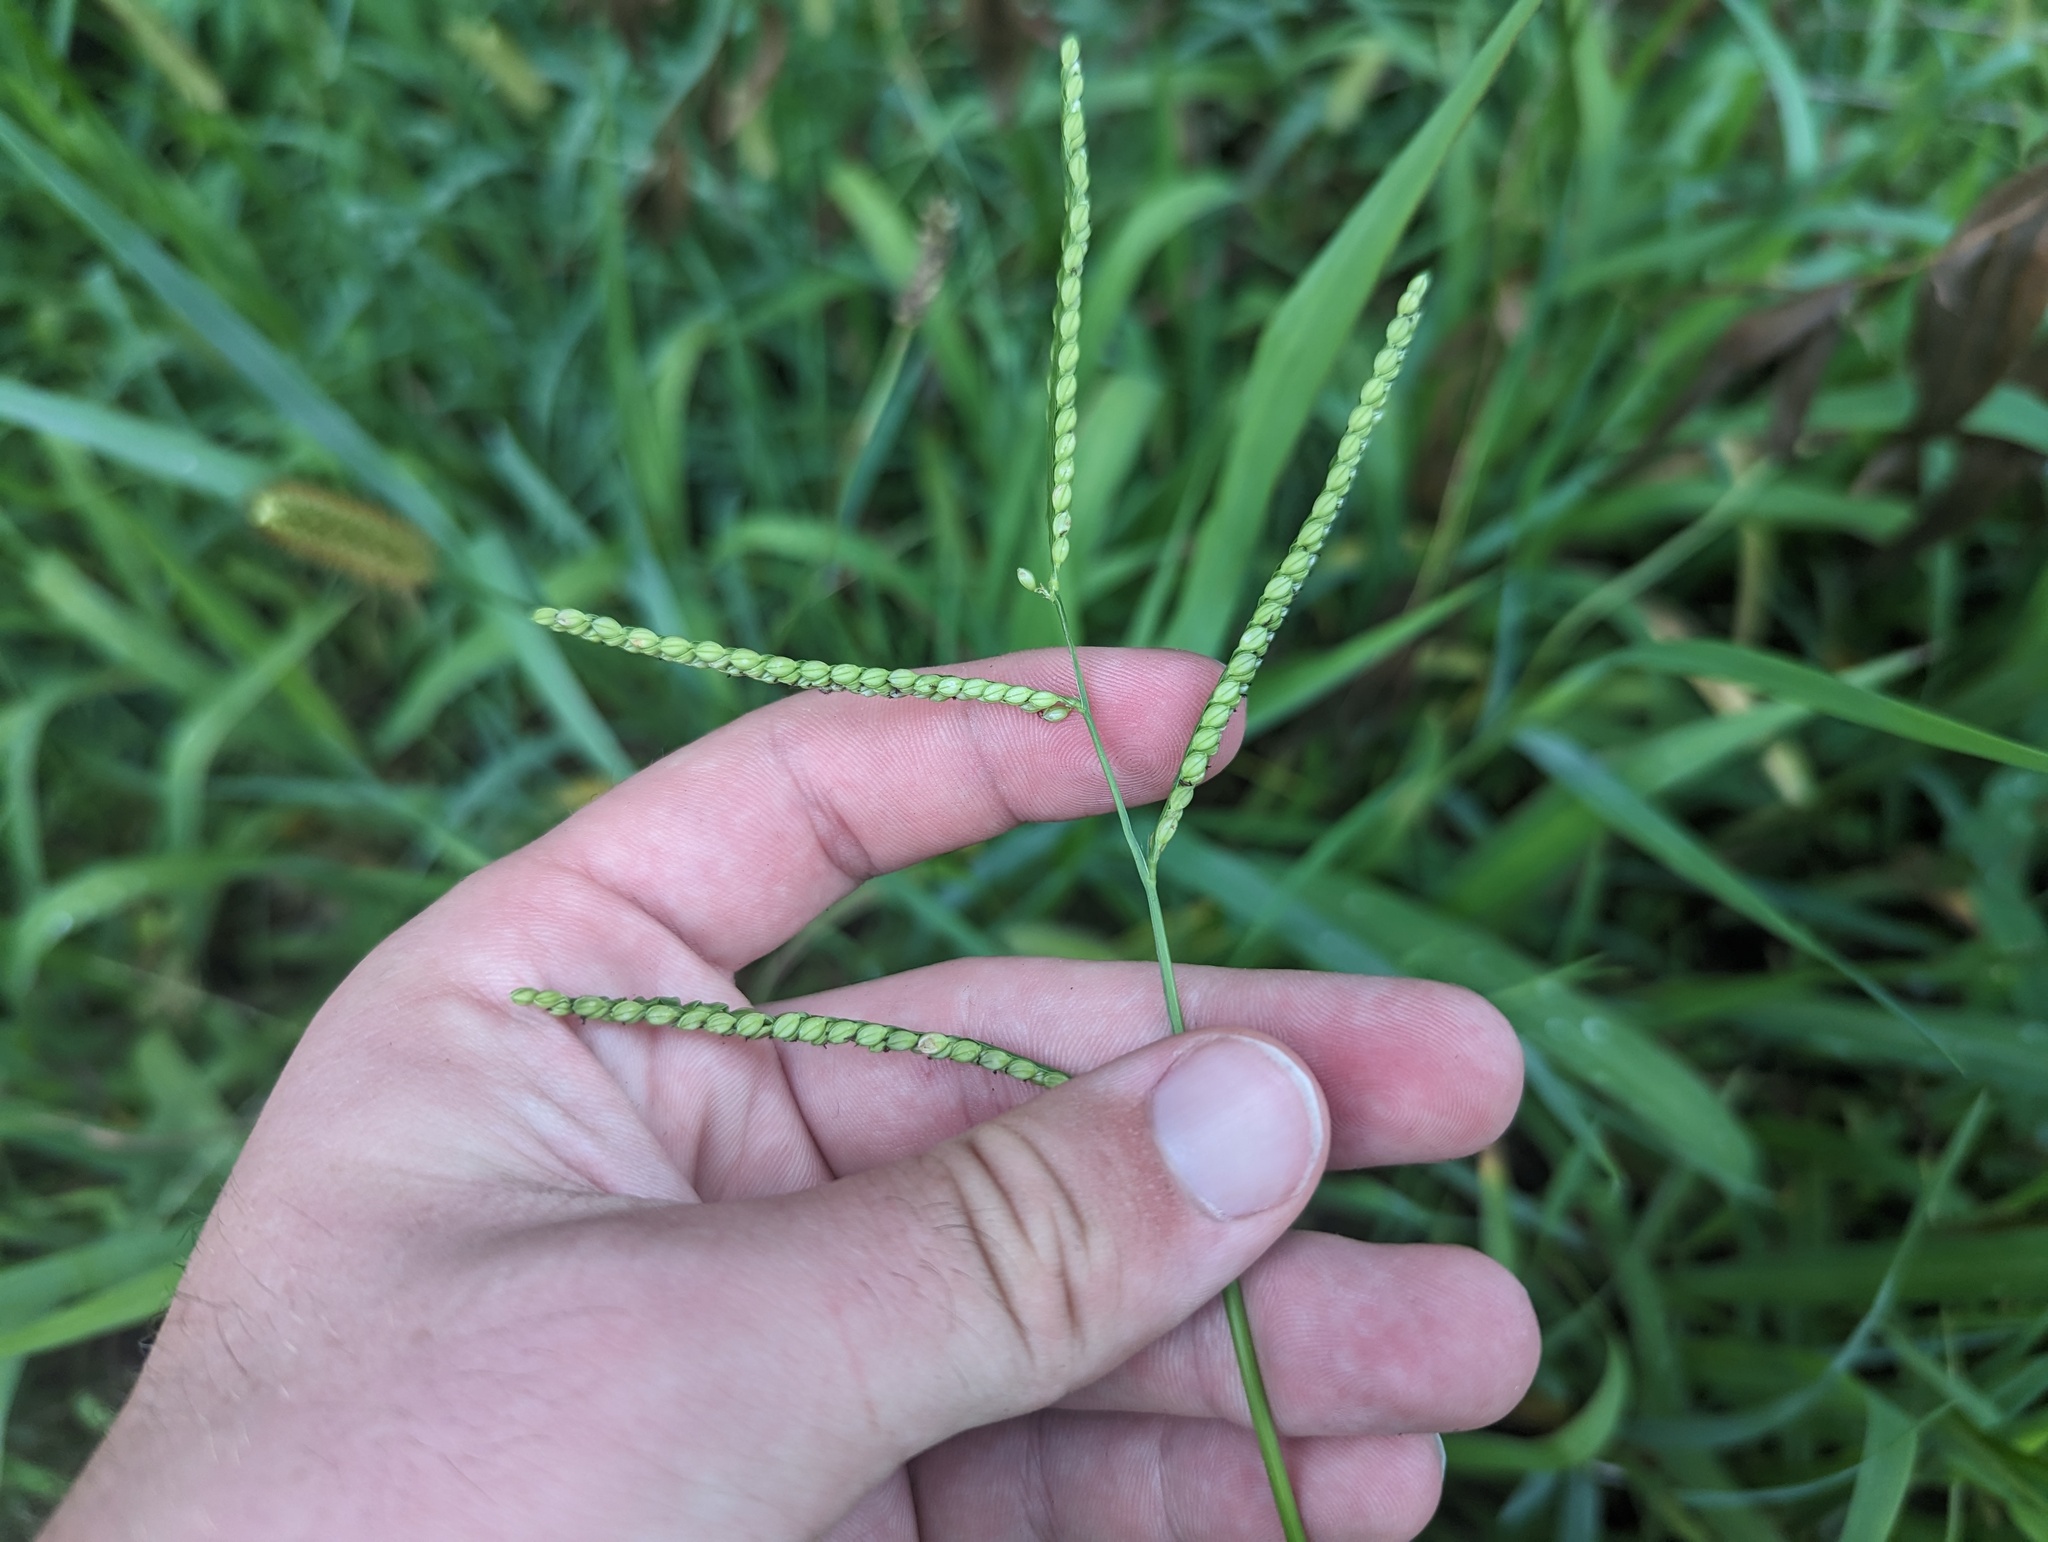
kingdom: Plantae
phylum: Tracheophyta
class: Liliopsida
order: Poales
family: Poaceae
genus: Paspalum
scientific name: Paspalum pubiflorum
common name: Hairy-seed paspalum
